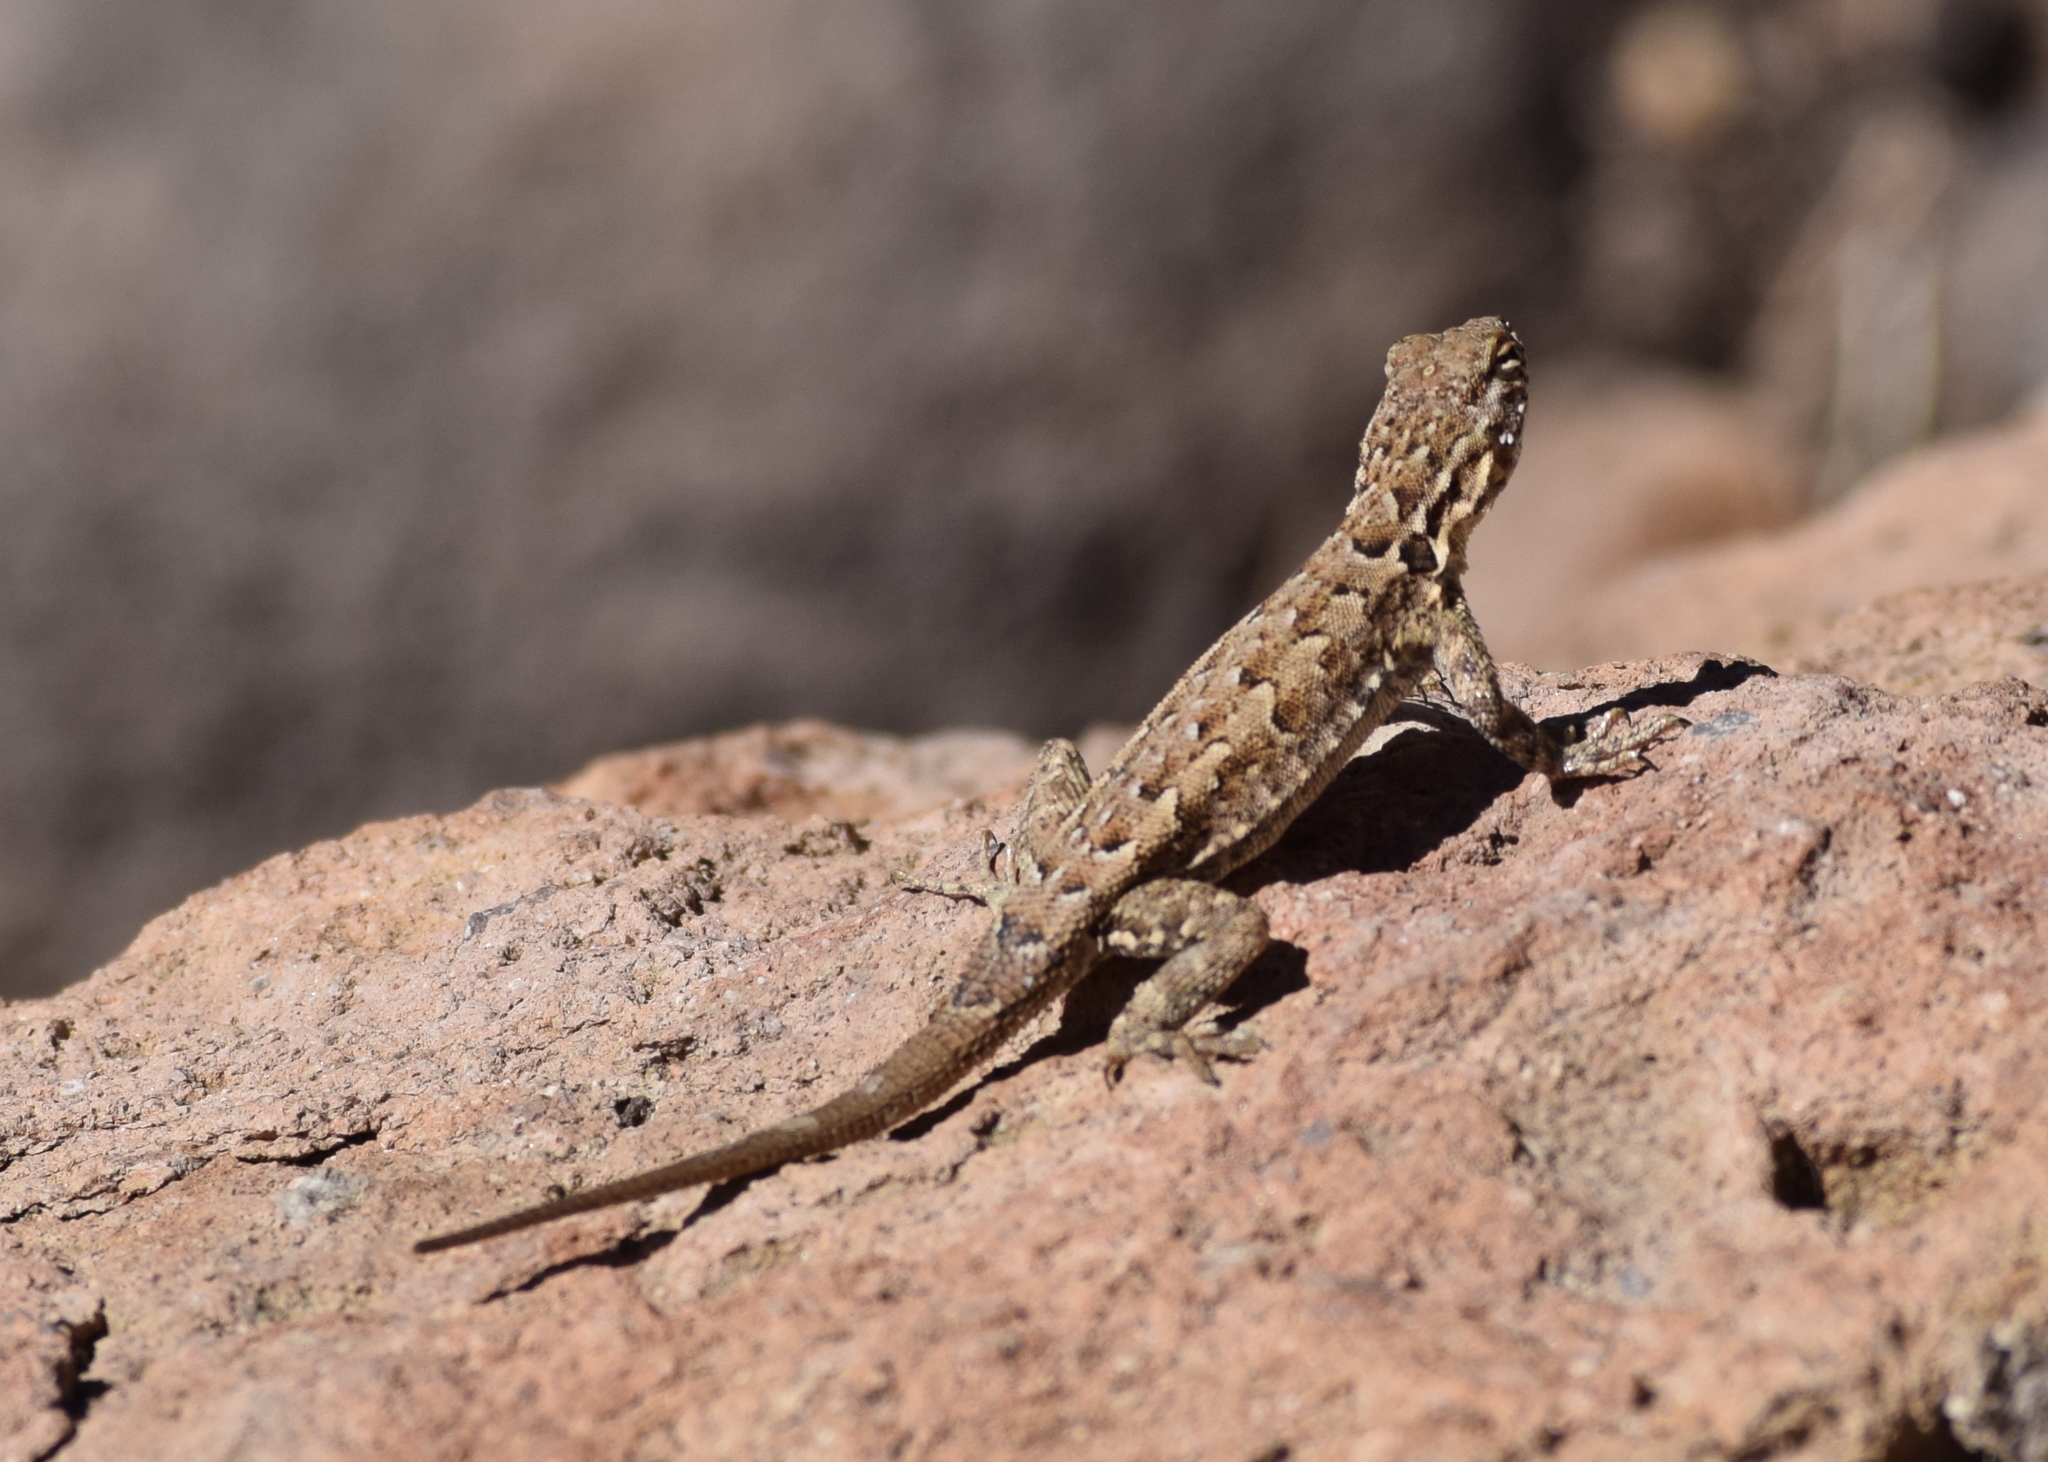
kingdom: Animalia
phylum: Chordata
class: Squamata
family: Phrynosomatidae
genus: Uta
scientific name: Uta stansburiana
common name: Side-blotched lizard
